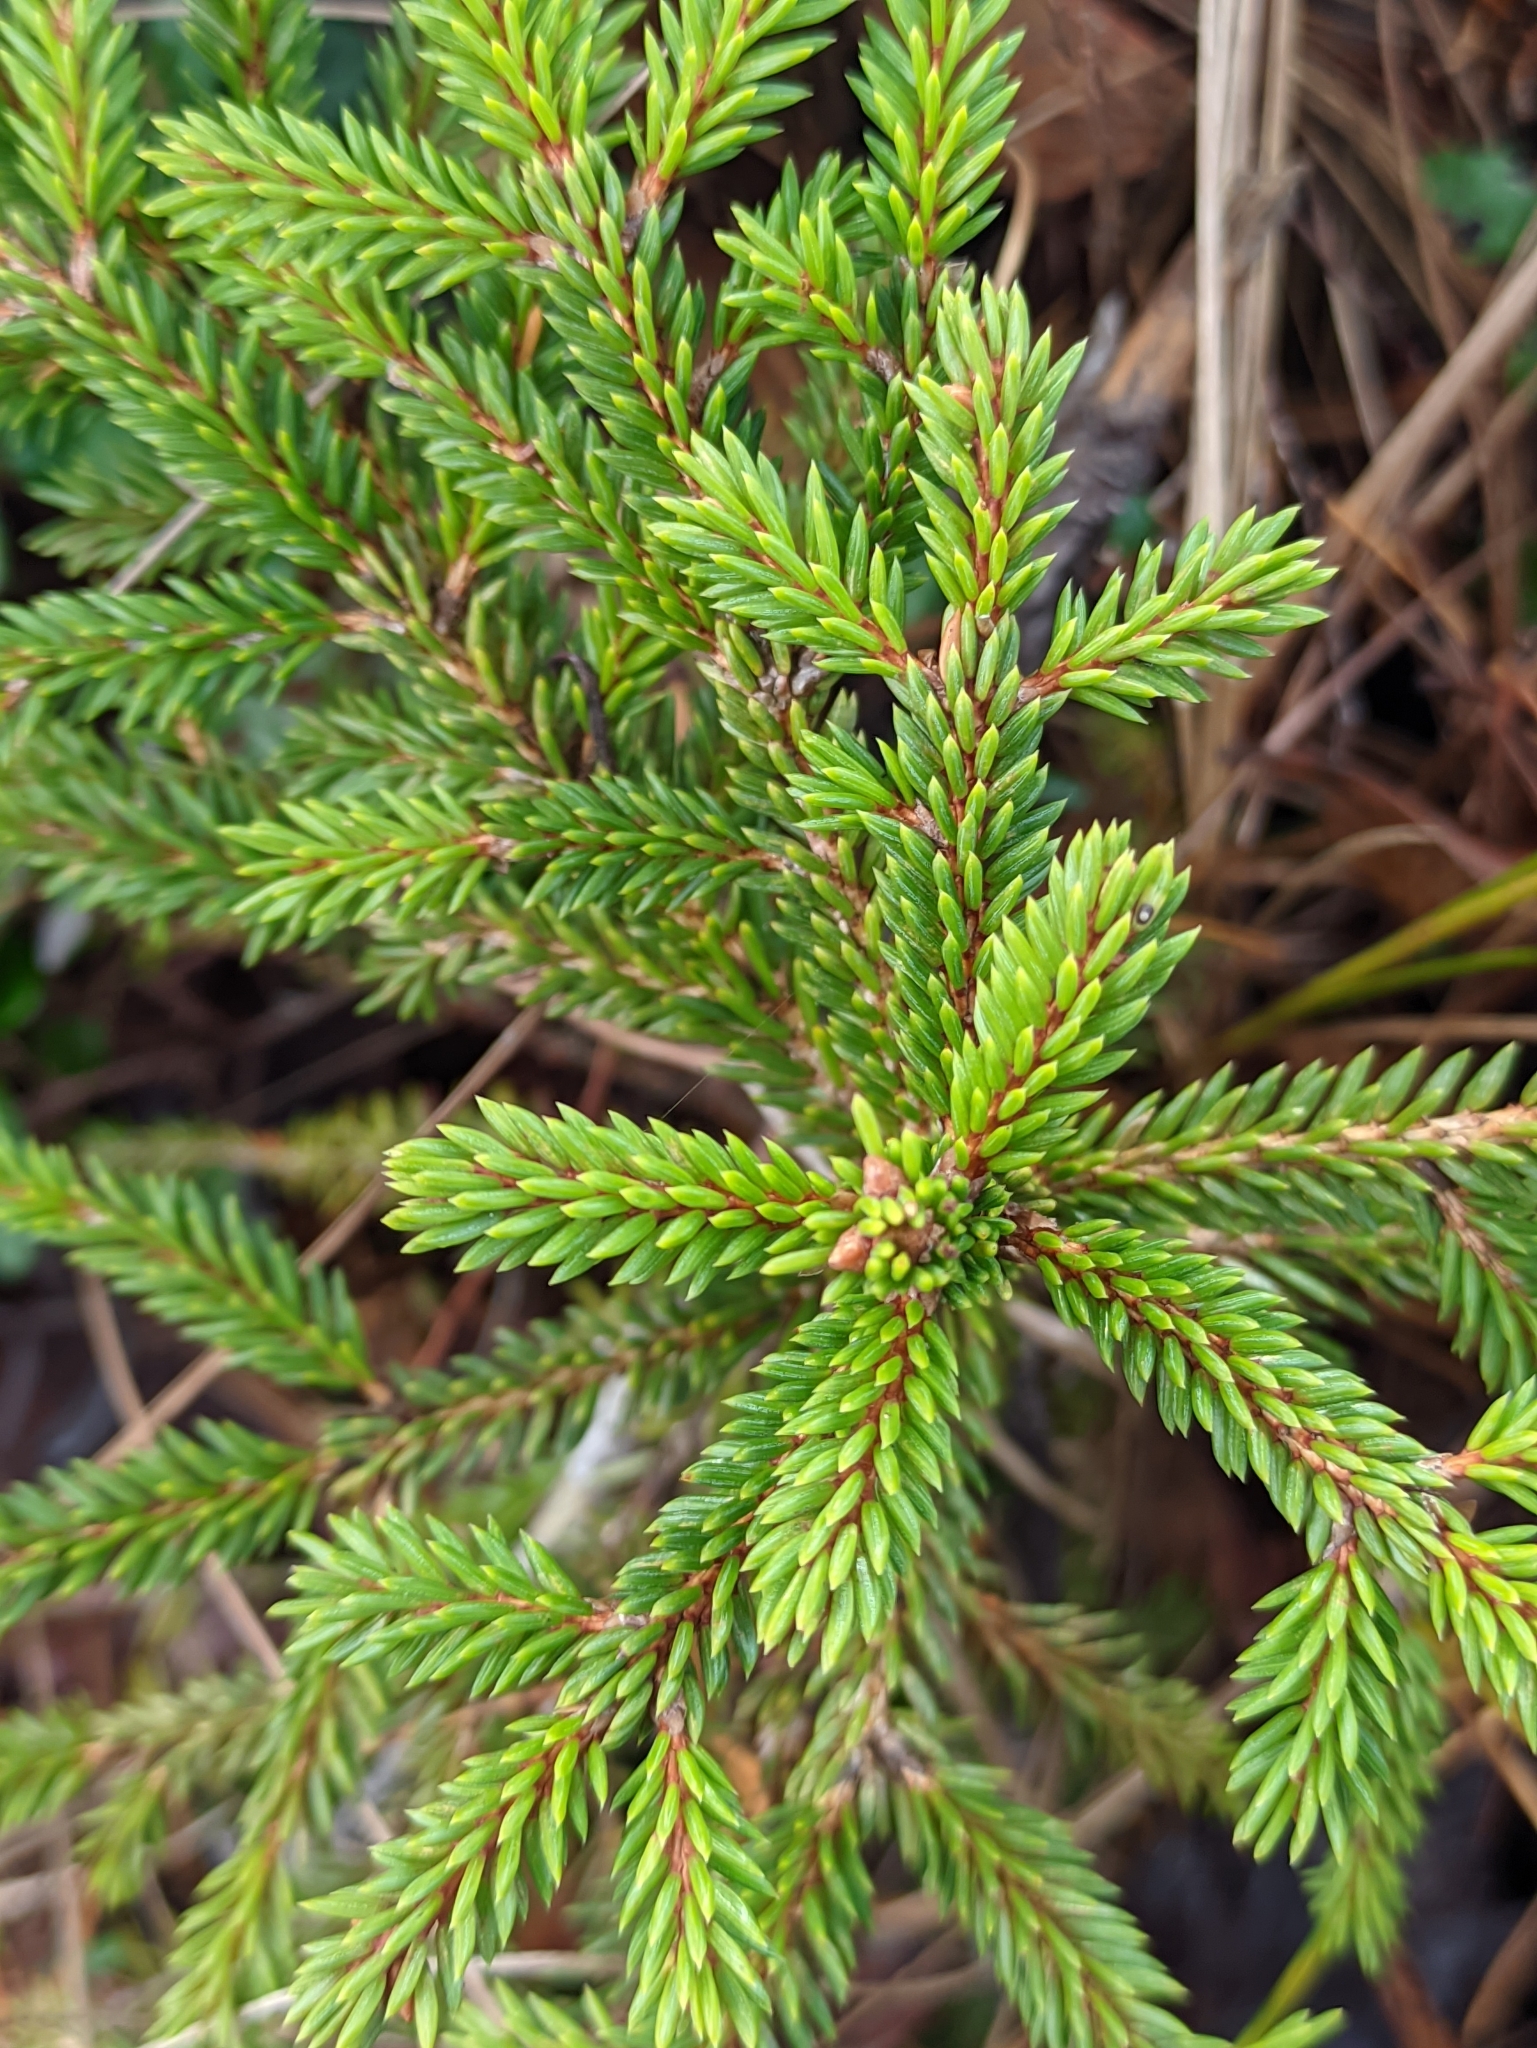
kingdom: Plantae
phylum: Tracheophyta
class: Pinopsida
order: Pinales
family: Pinaceae
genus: Picea
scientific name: Picea abies
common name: Norway spruce
